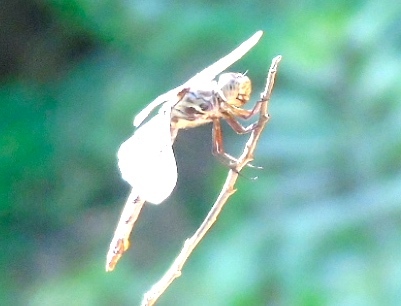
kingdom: Animalia
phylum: Arthropoda
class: Insecta
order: Odonata
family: Libellulidae
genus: Orthemis
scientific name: Orthemis
